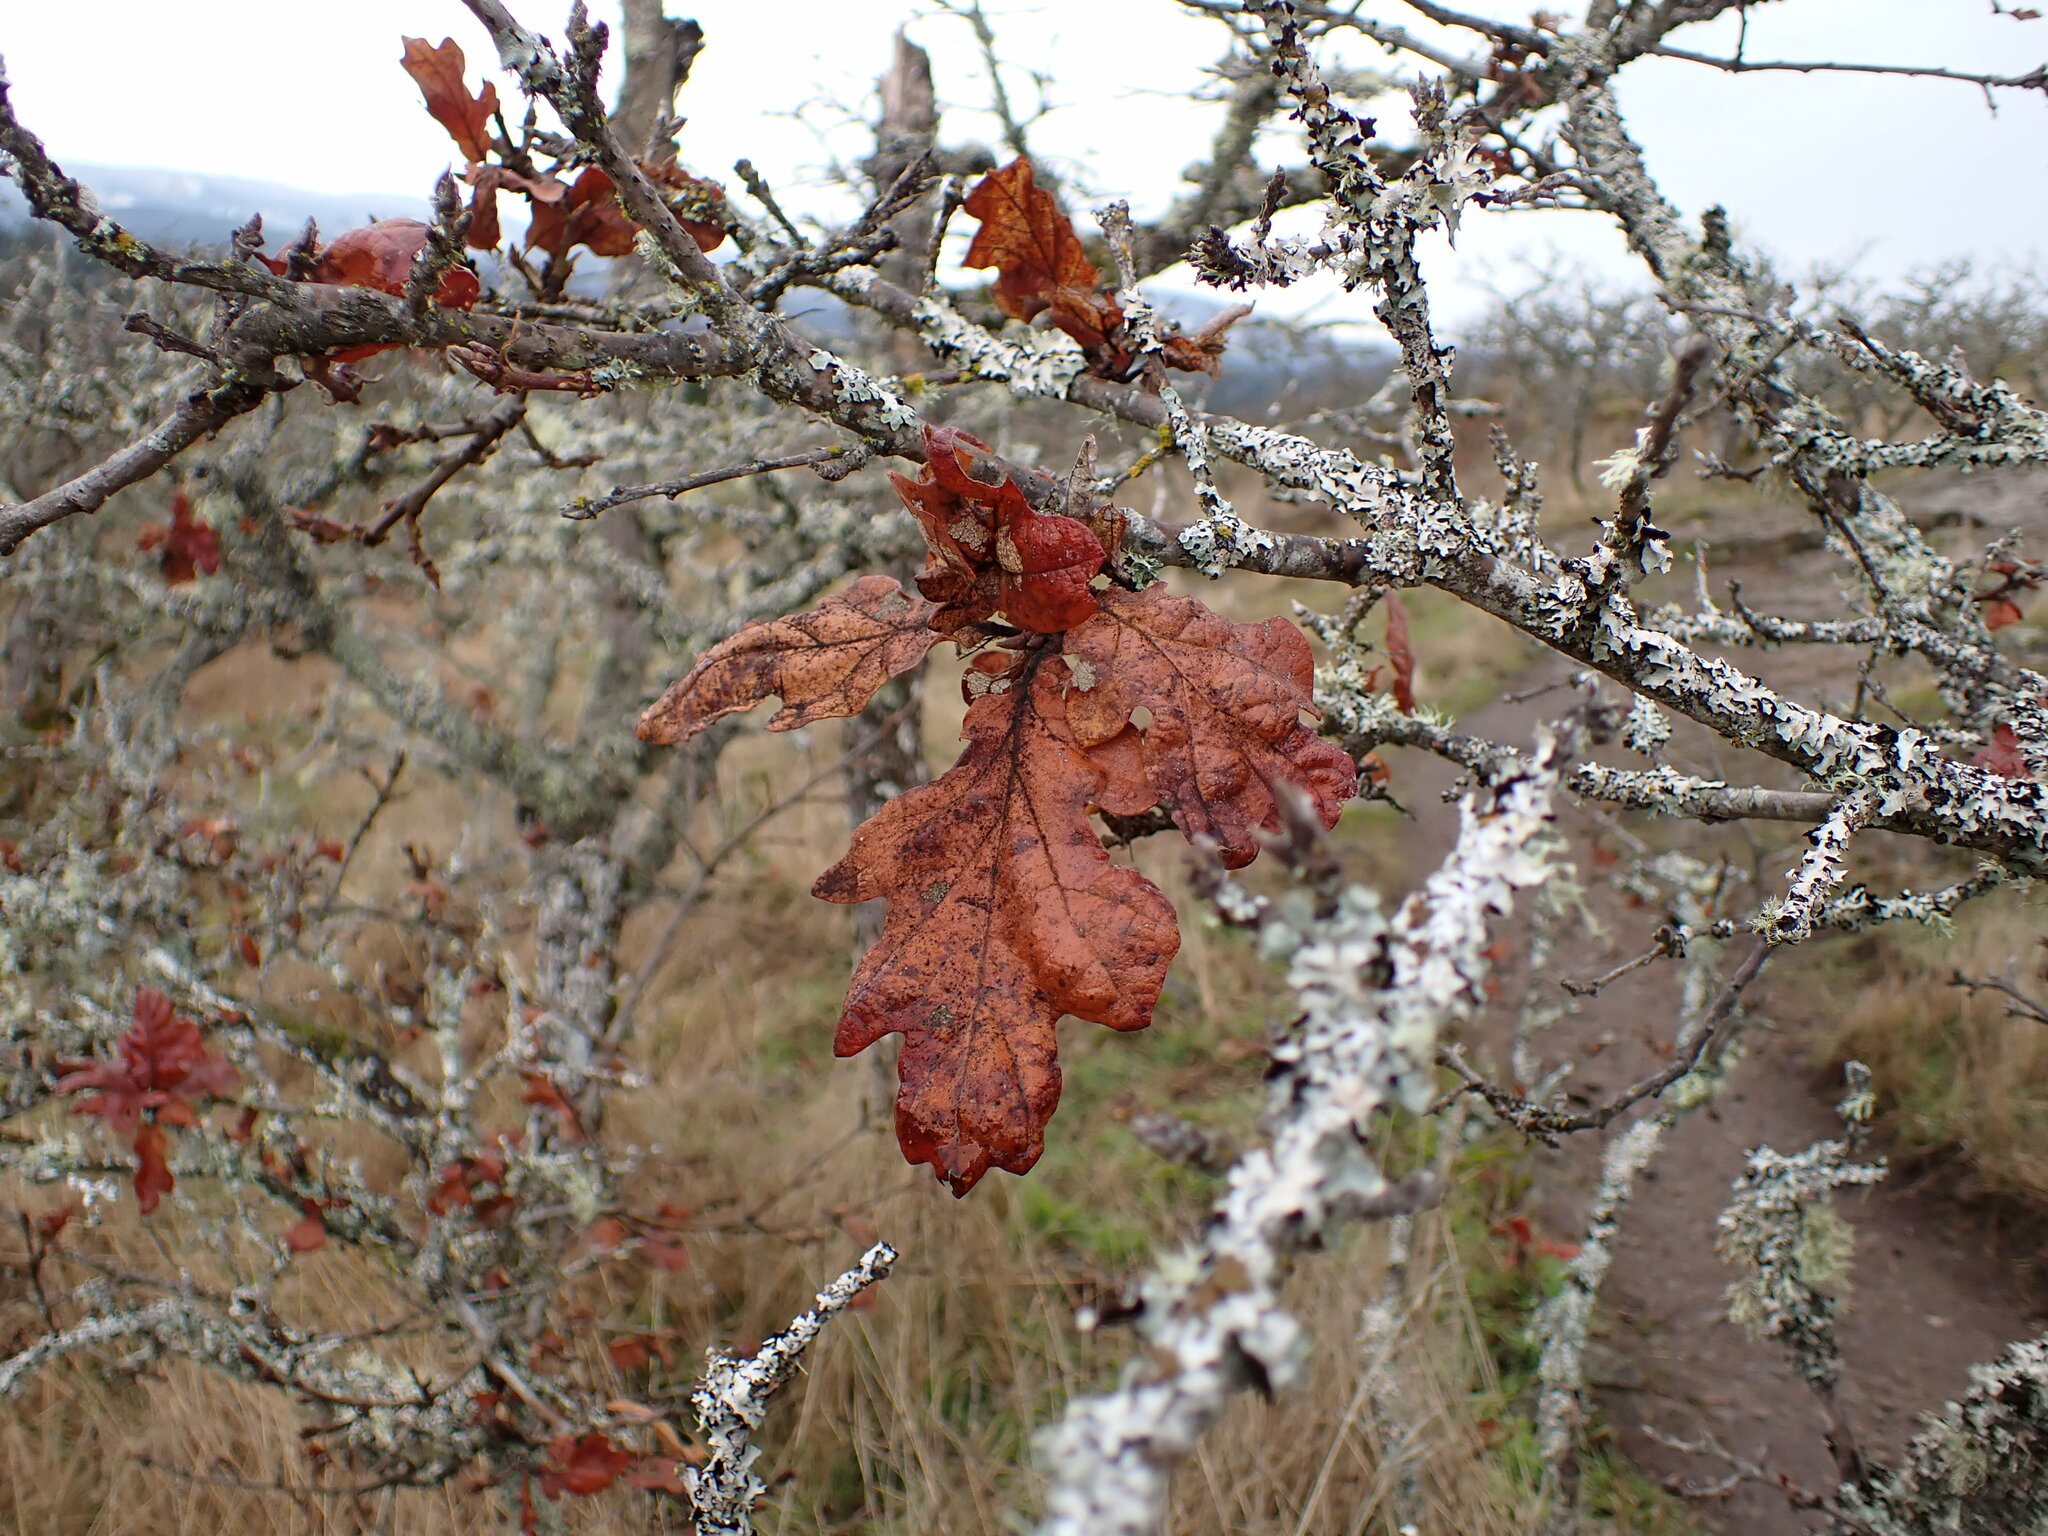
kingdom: Plantae
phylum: Tracheophyta
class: Magnoliopsida
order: Fagales
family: Fagaceae
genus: Quercus
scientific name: Quercus garryana
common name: Garry oak
